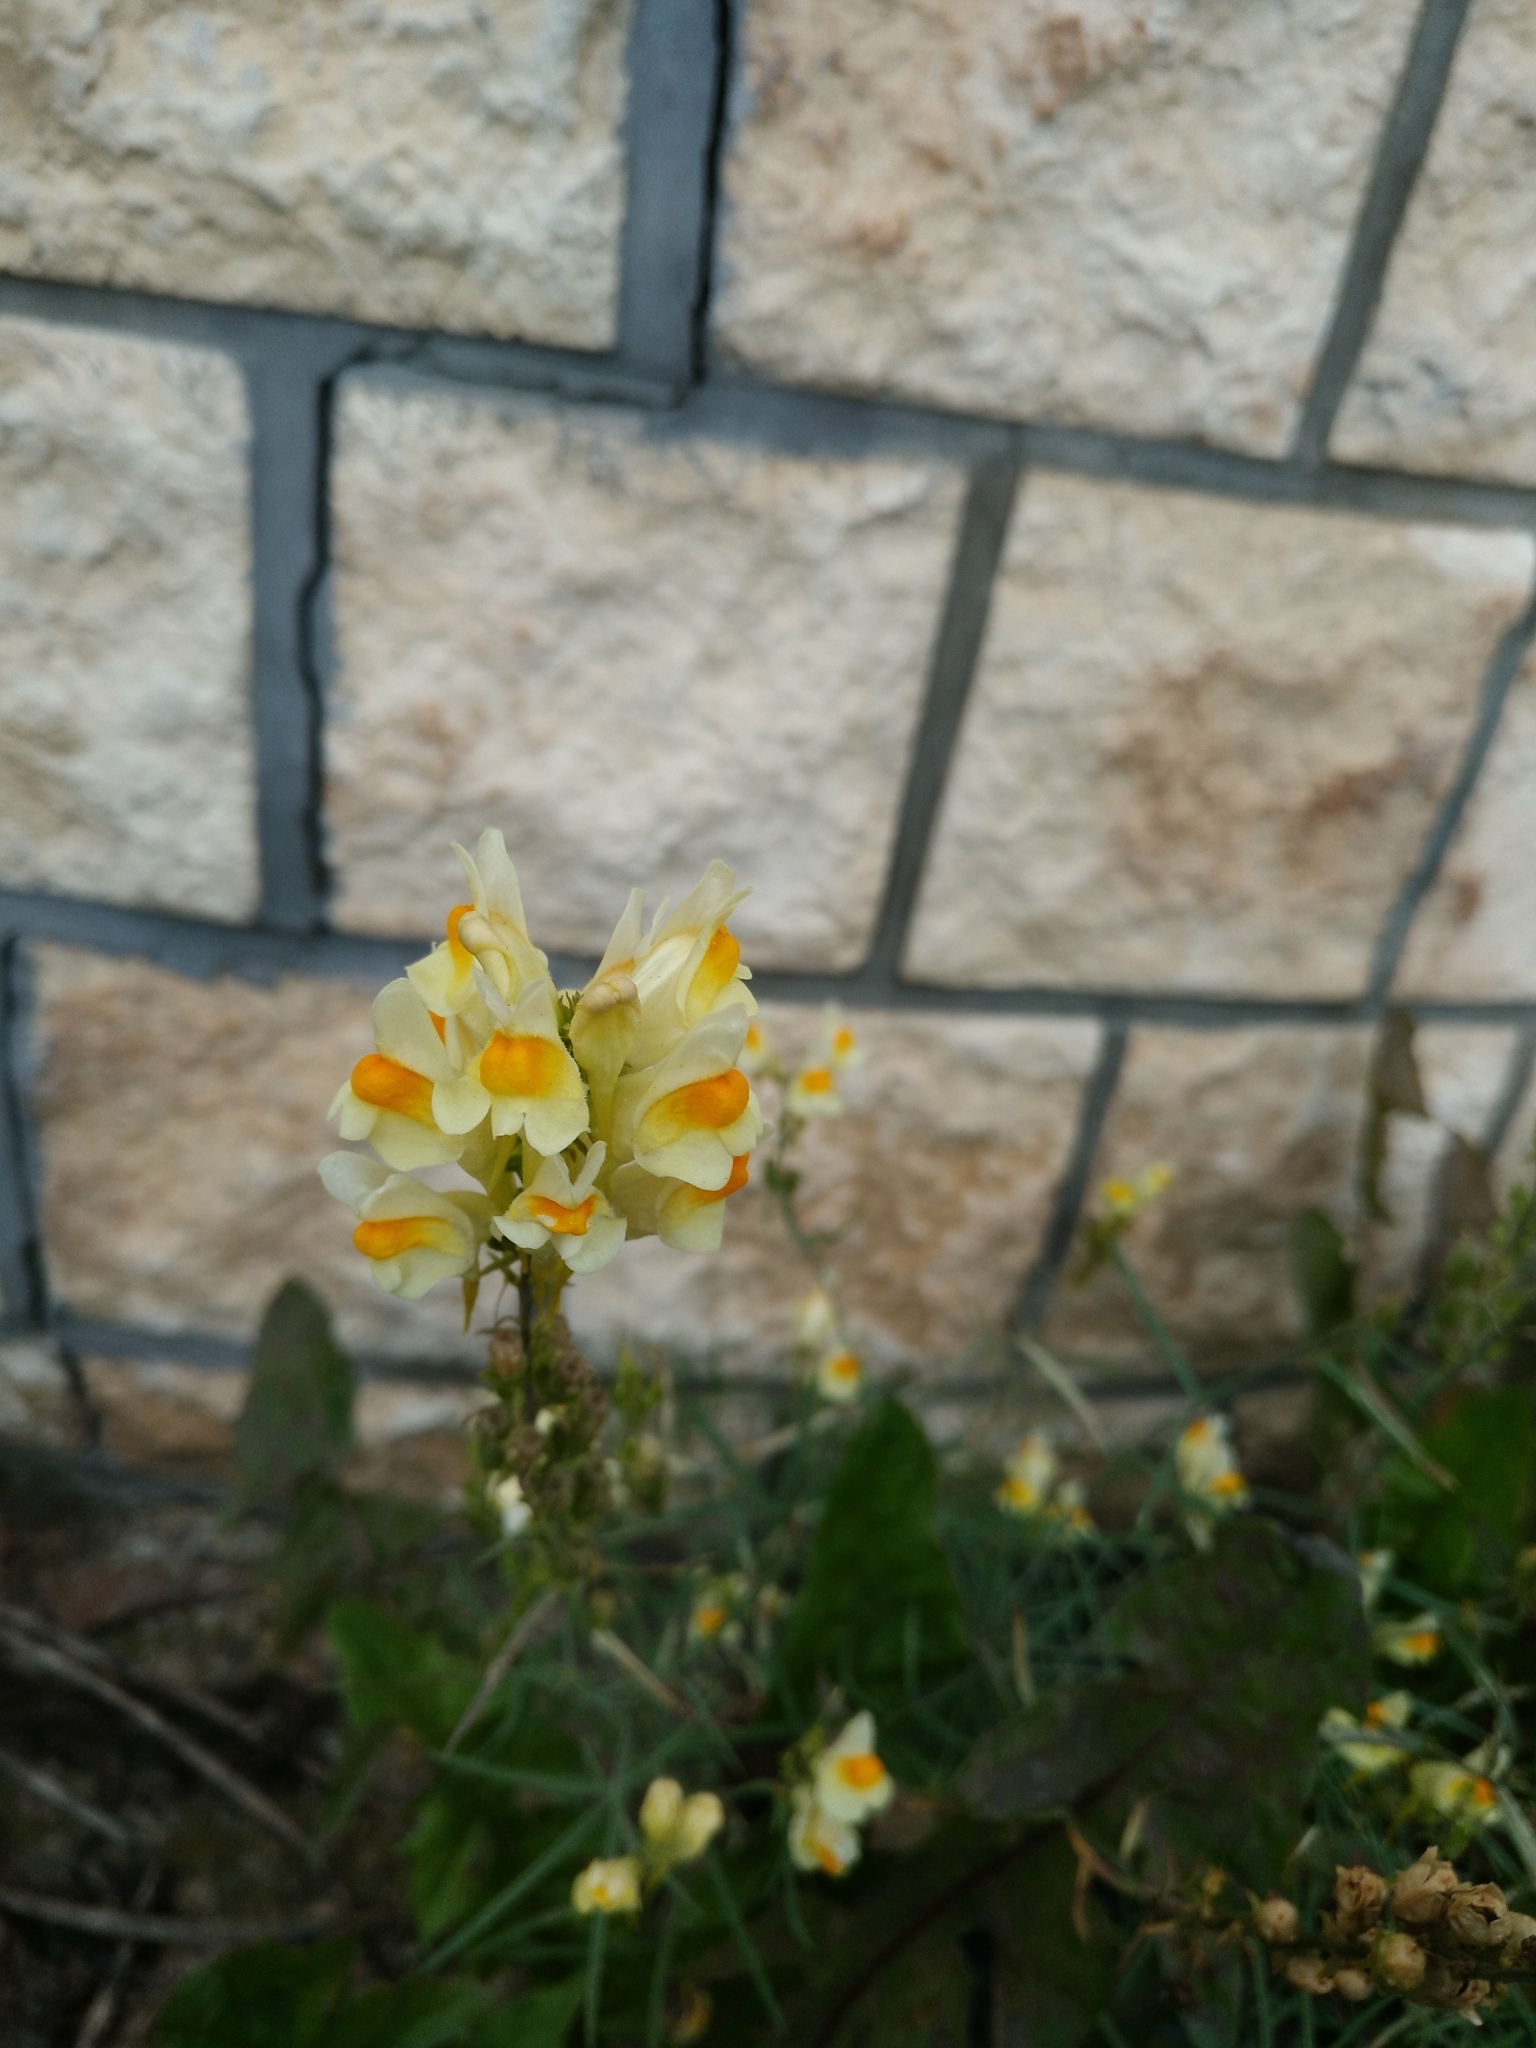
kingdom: Plantae
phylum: Tracheophyta
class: Magnoliopsida
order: Lamiales
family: Plantaginaceae
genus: Linaria
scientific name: Linaria vulgaris
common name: Butter and eggs
